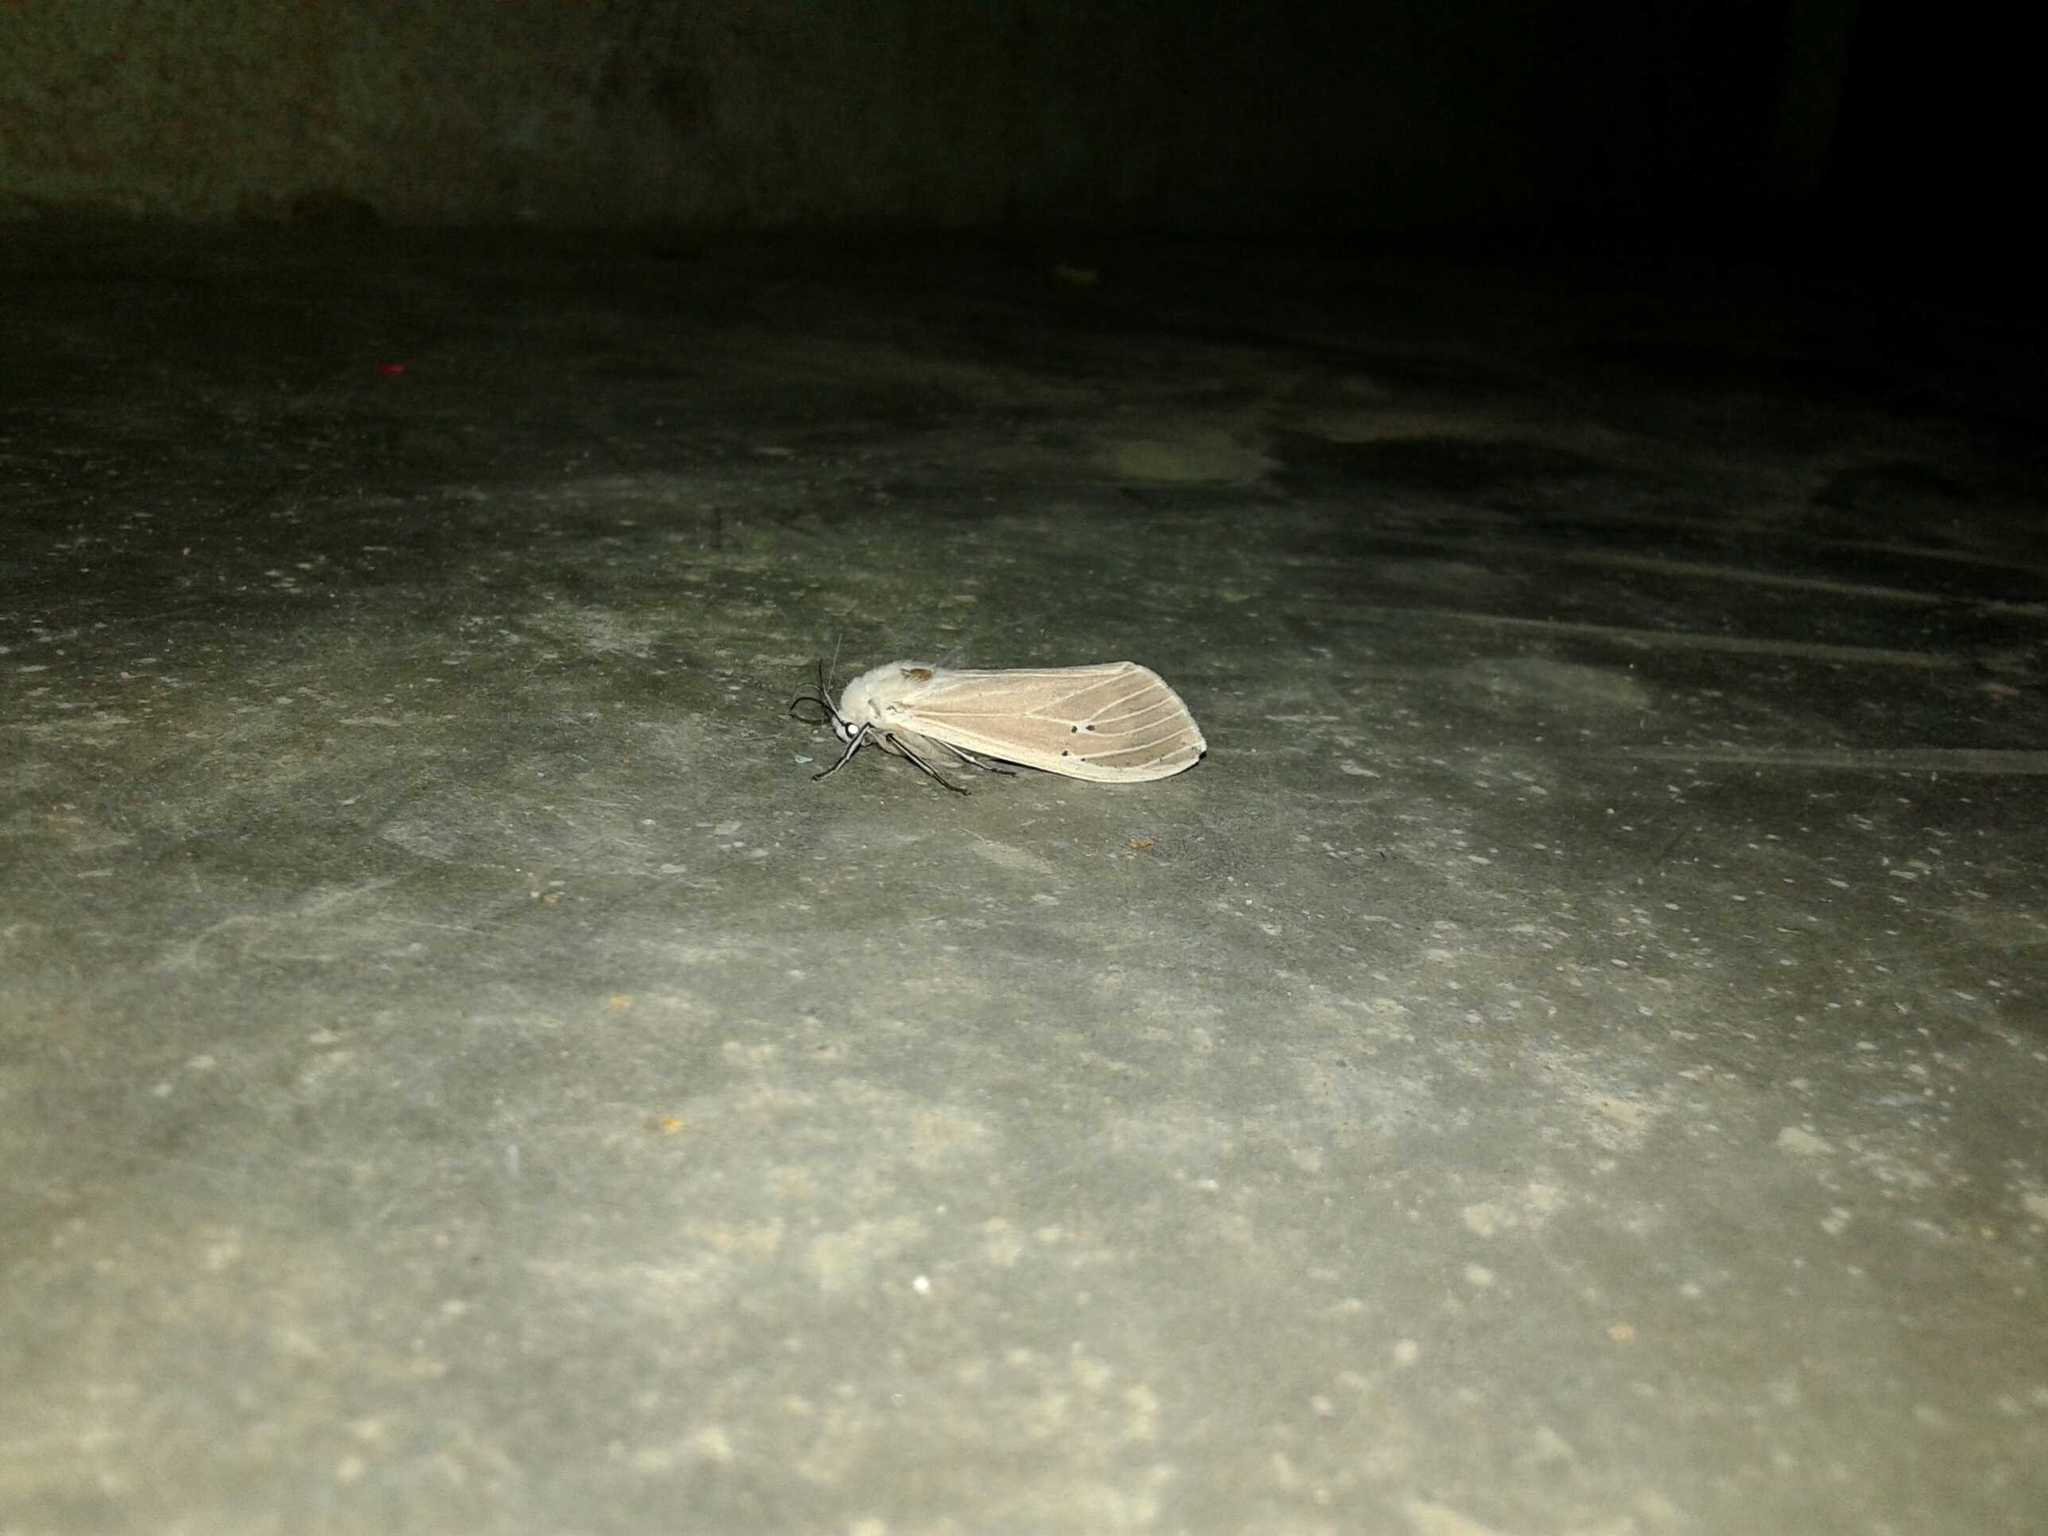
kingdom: Animalia
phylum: Arthropoda
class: Insecta
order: Lepidoptera
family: Erebidae
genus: Creatonotos
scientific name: Creatonotos transiens
